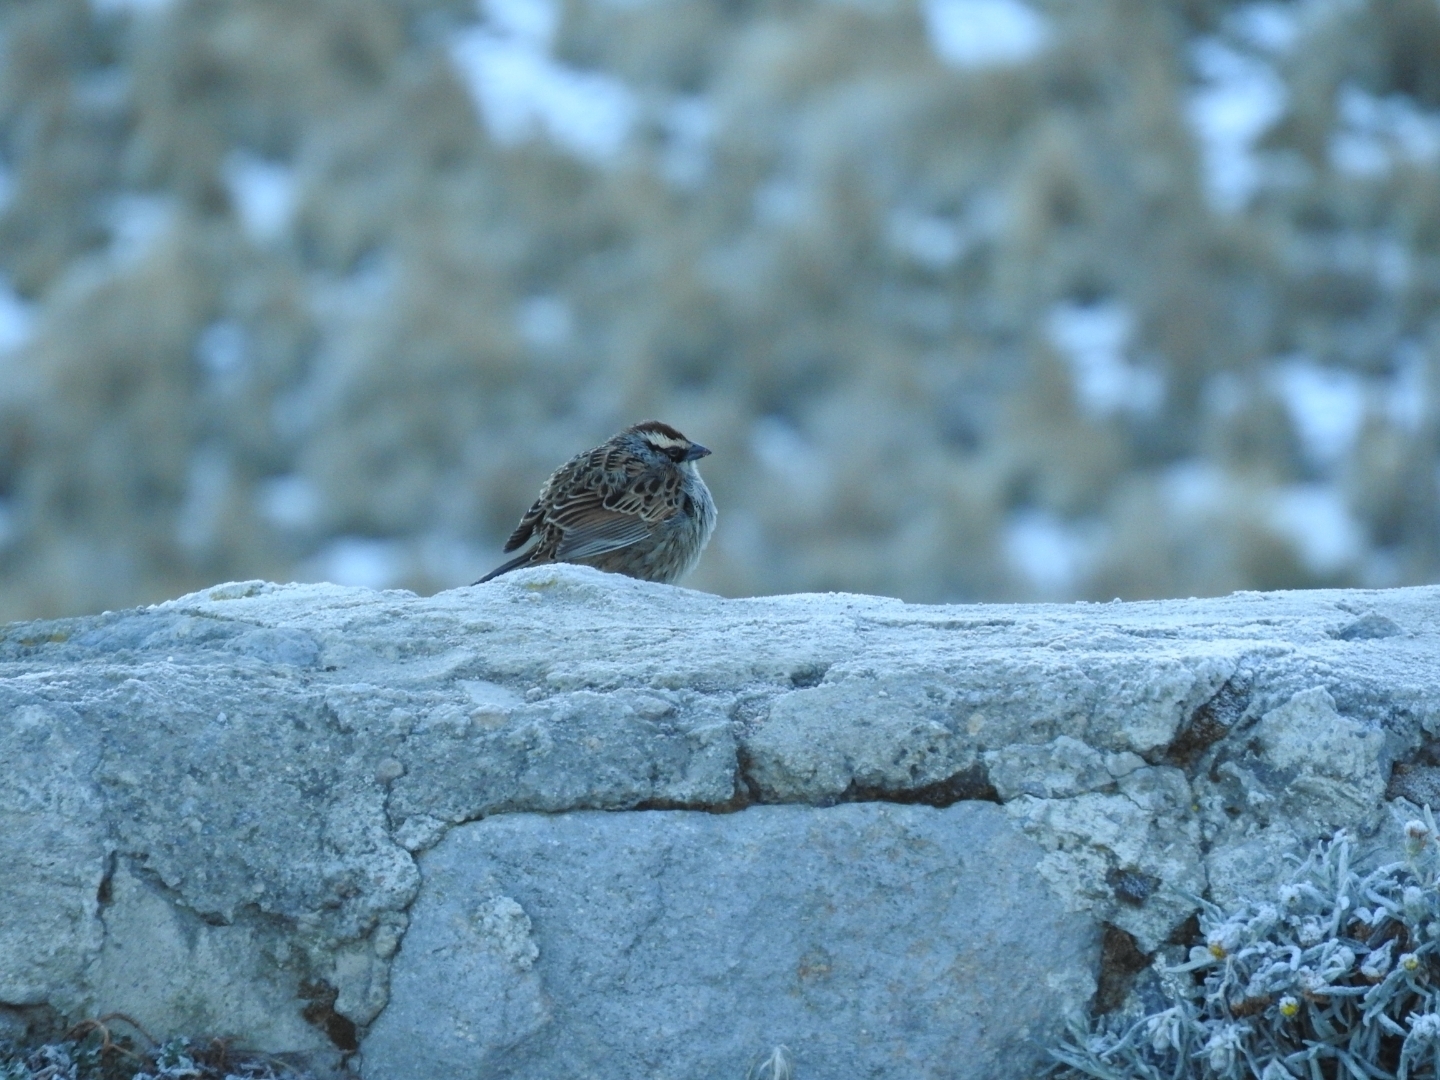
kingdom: Animalia
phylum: Chordata
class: Aves
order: Passeriformes
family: Passerellidae
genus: Oriturus
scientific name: Oriturus superciliosus
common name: Striped sparrow
